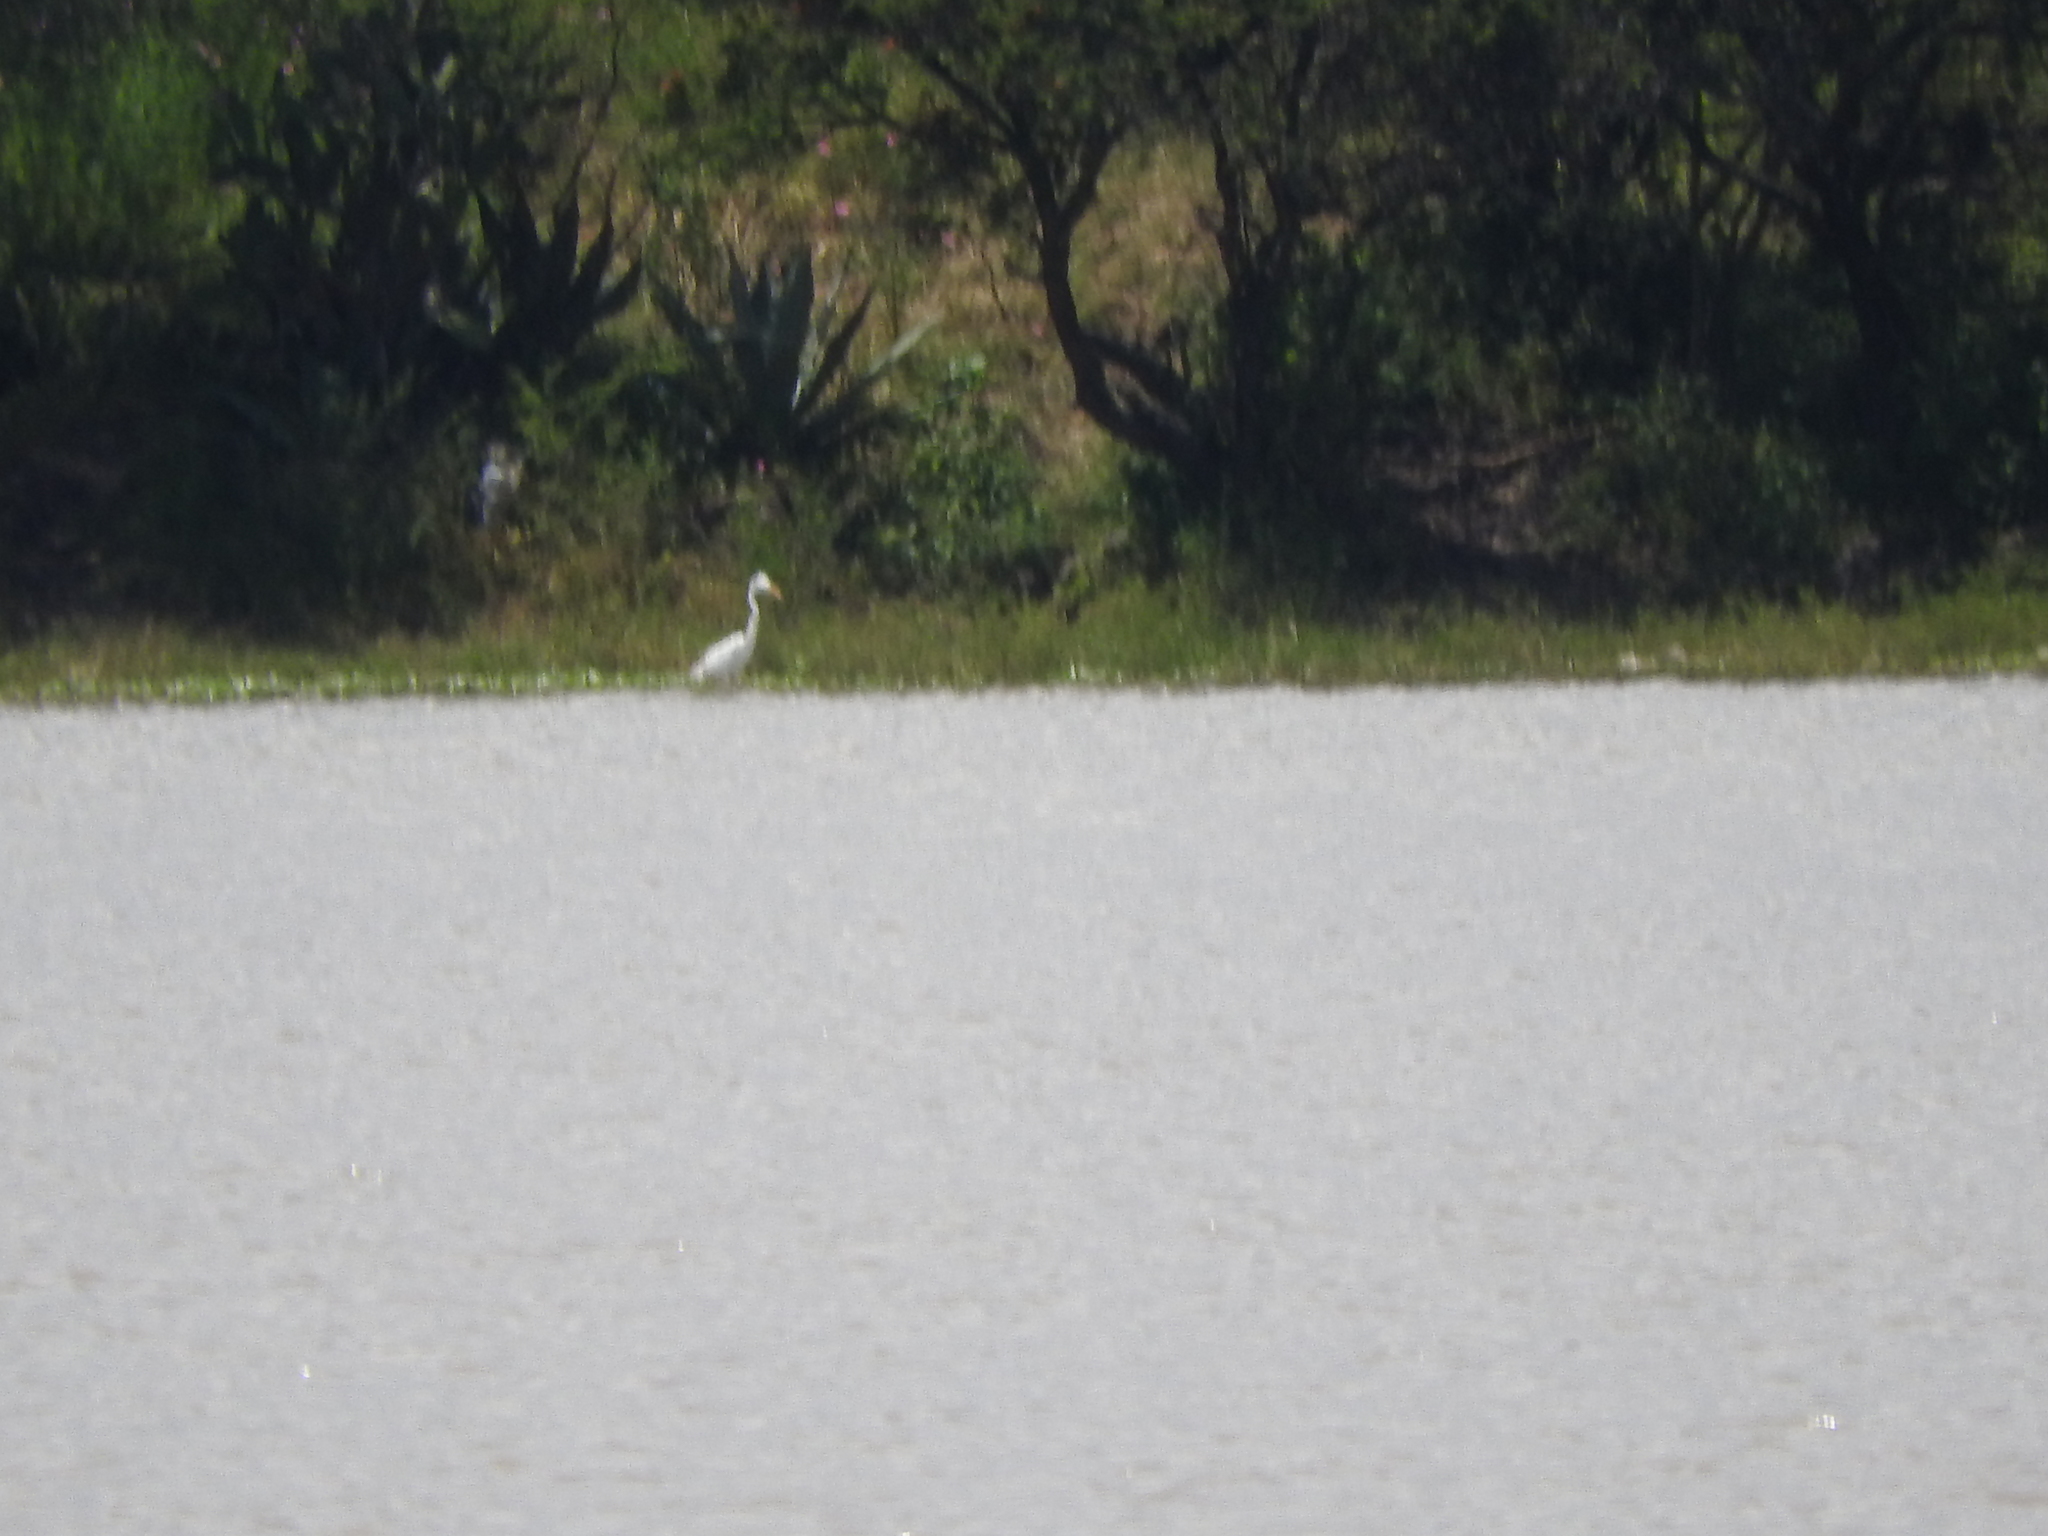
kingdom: Animalia
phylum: Chordata
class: Aves
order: Pelecaniformes
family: Ardeidae
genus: Ardea
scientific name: Ardea alba
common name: Great egret
